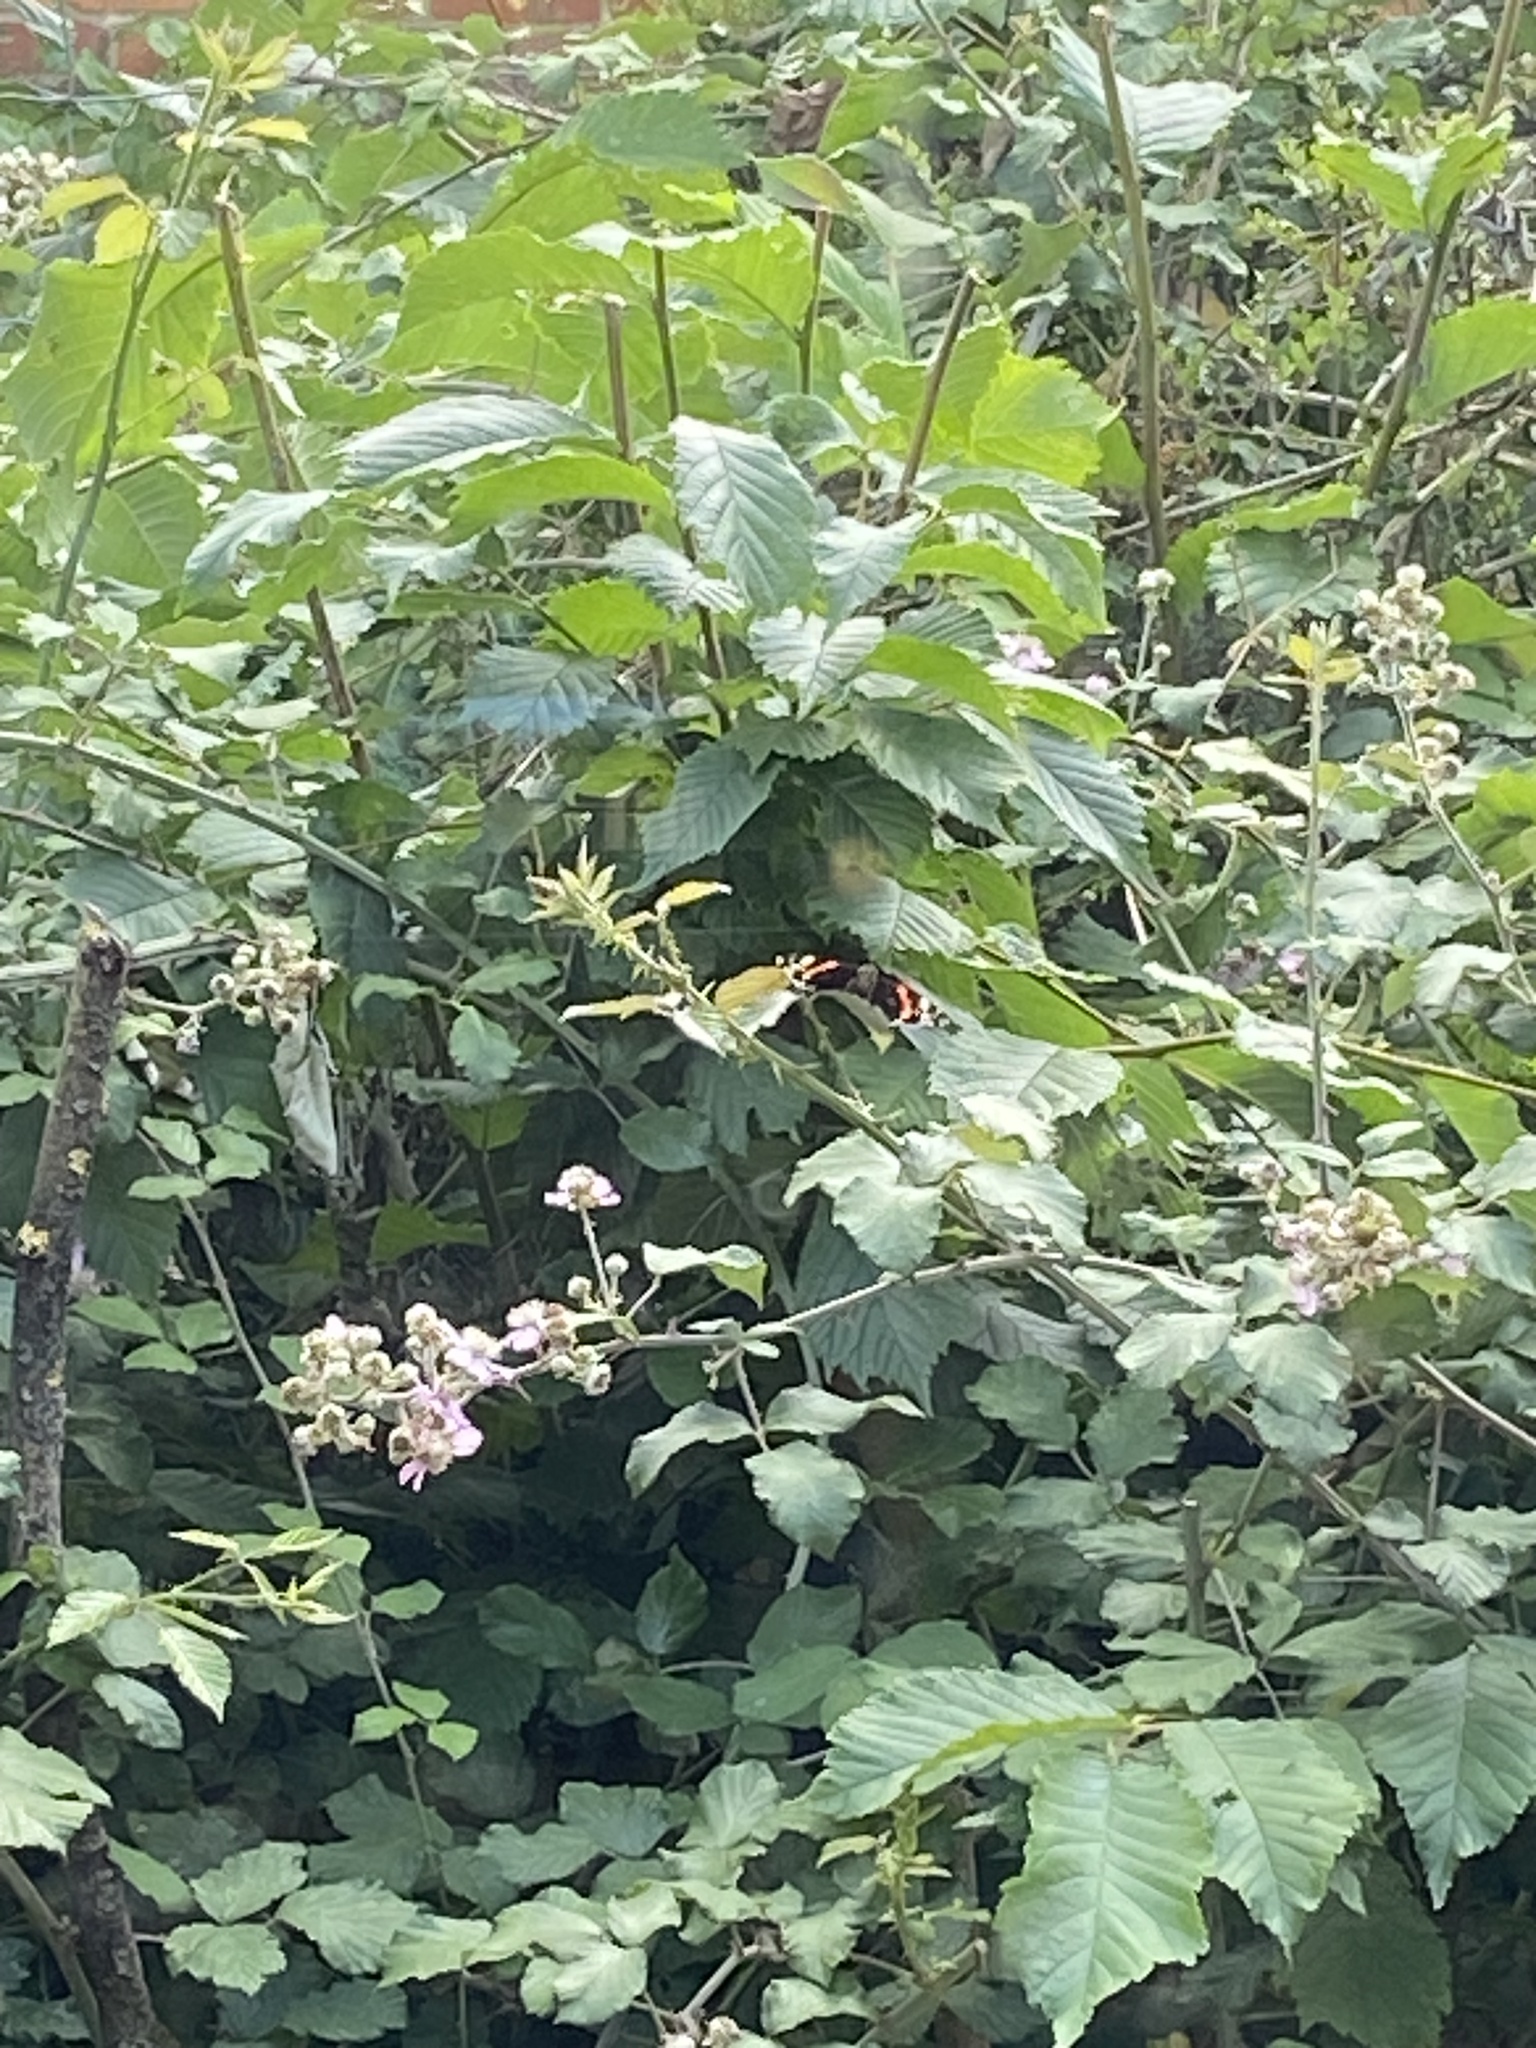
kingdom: Animalia
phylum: Chordata
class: Aves
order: Passeriformes
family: Paridae
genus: Cyanistes
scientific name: Cyanistes caeruleus
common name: Eurasian blue tit
